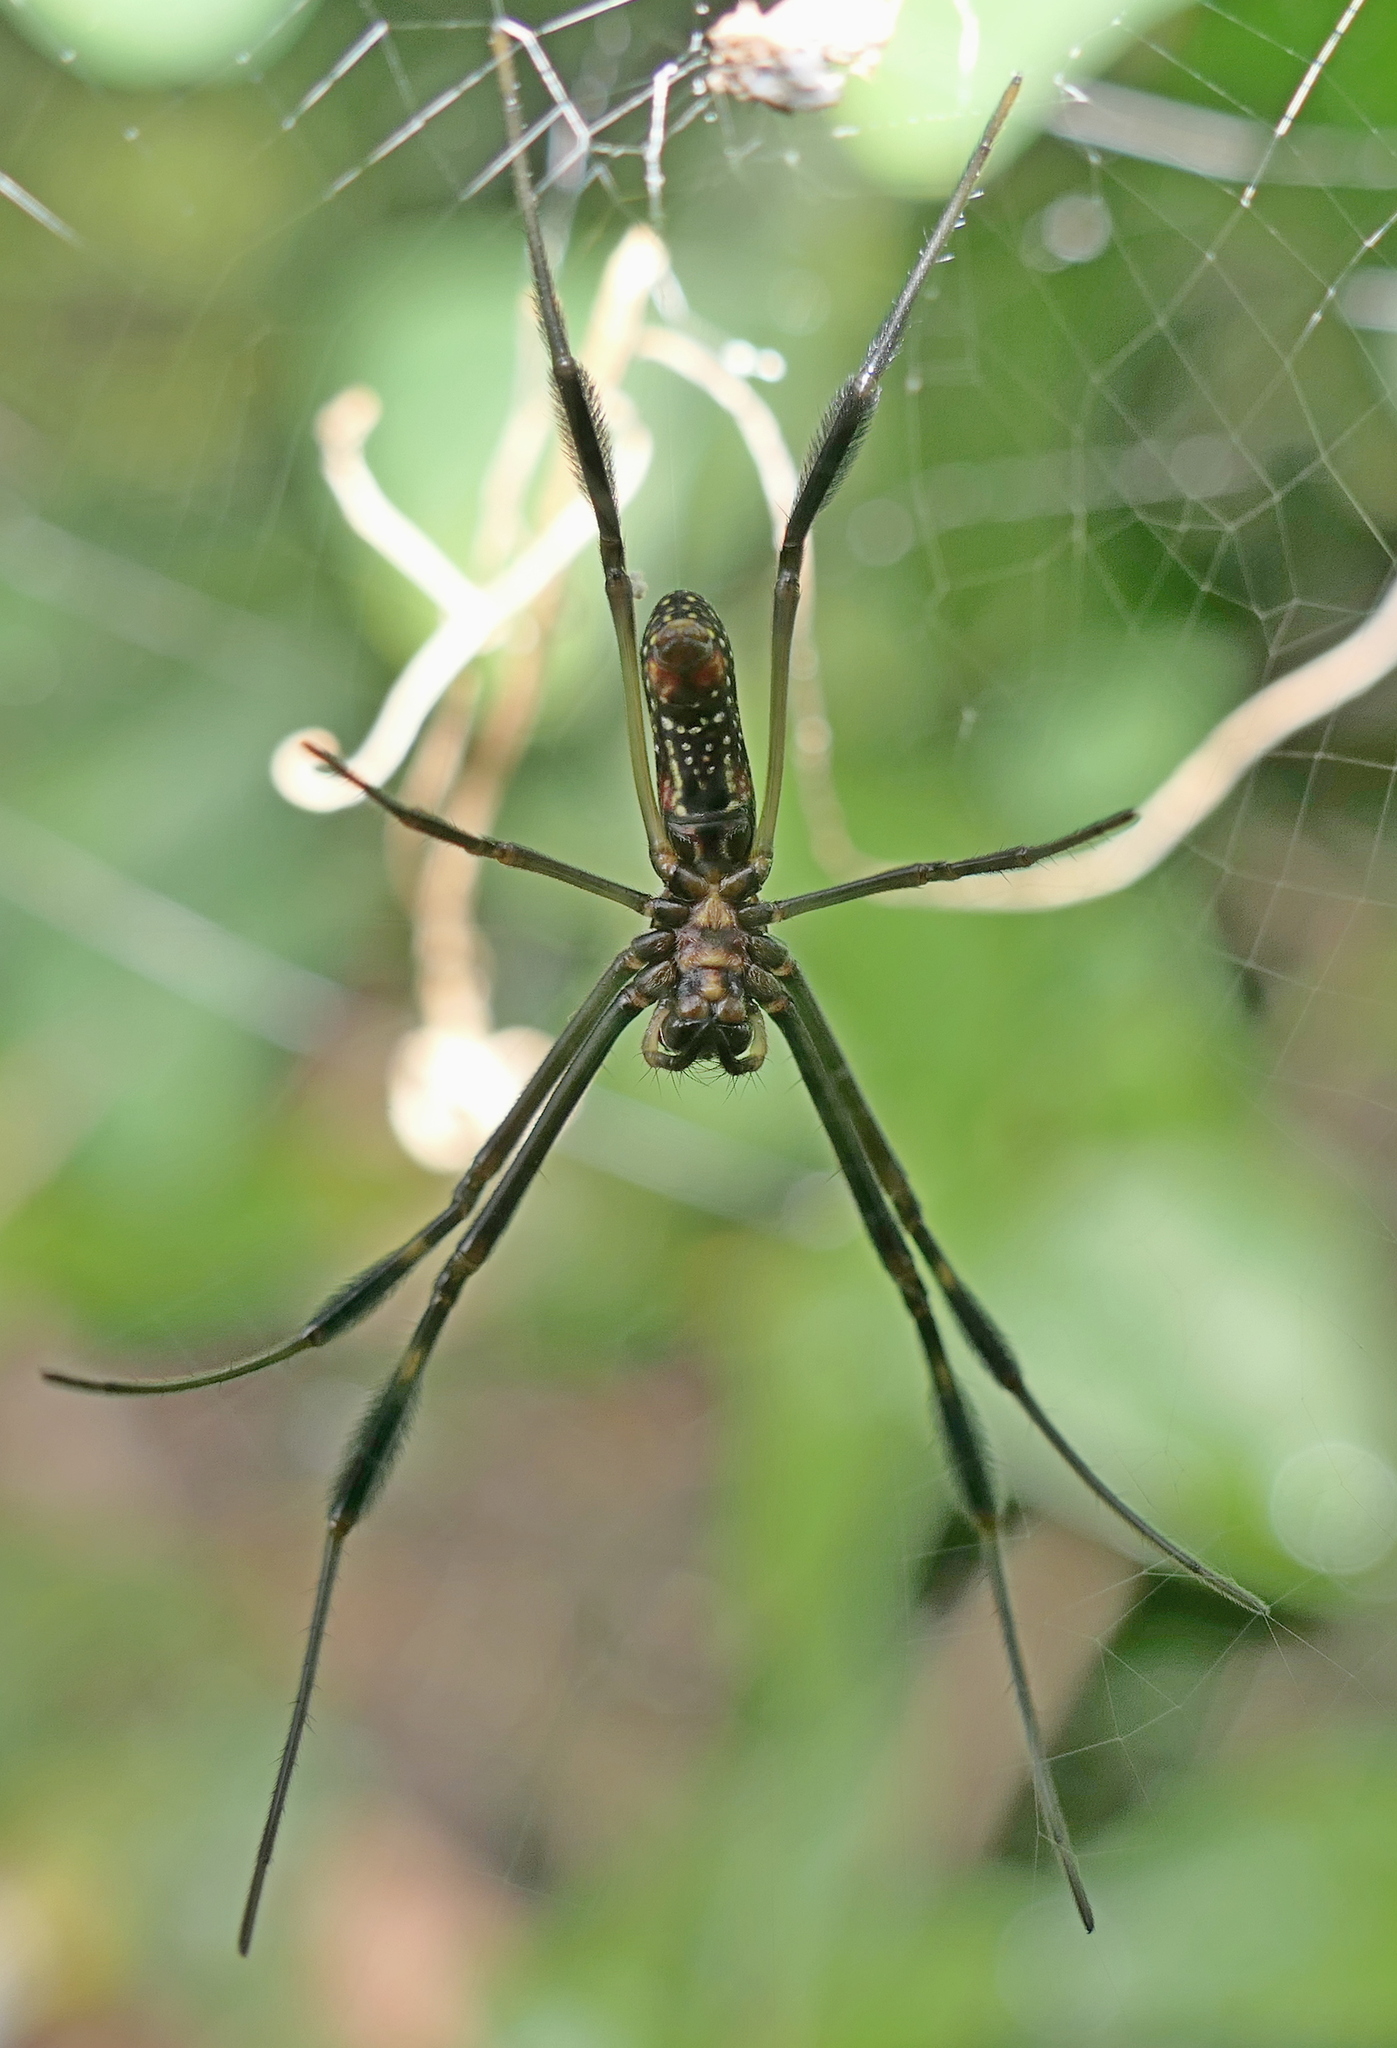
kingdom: Animalia
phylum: Arthropoda
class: Arachnida
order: Araneae
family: Araneidae
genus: Trichonephila
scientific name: Trichonephila clavipes
